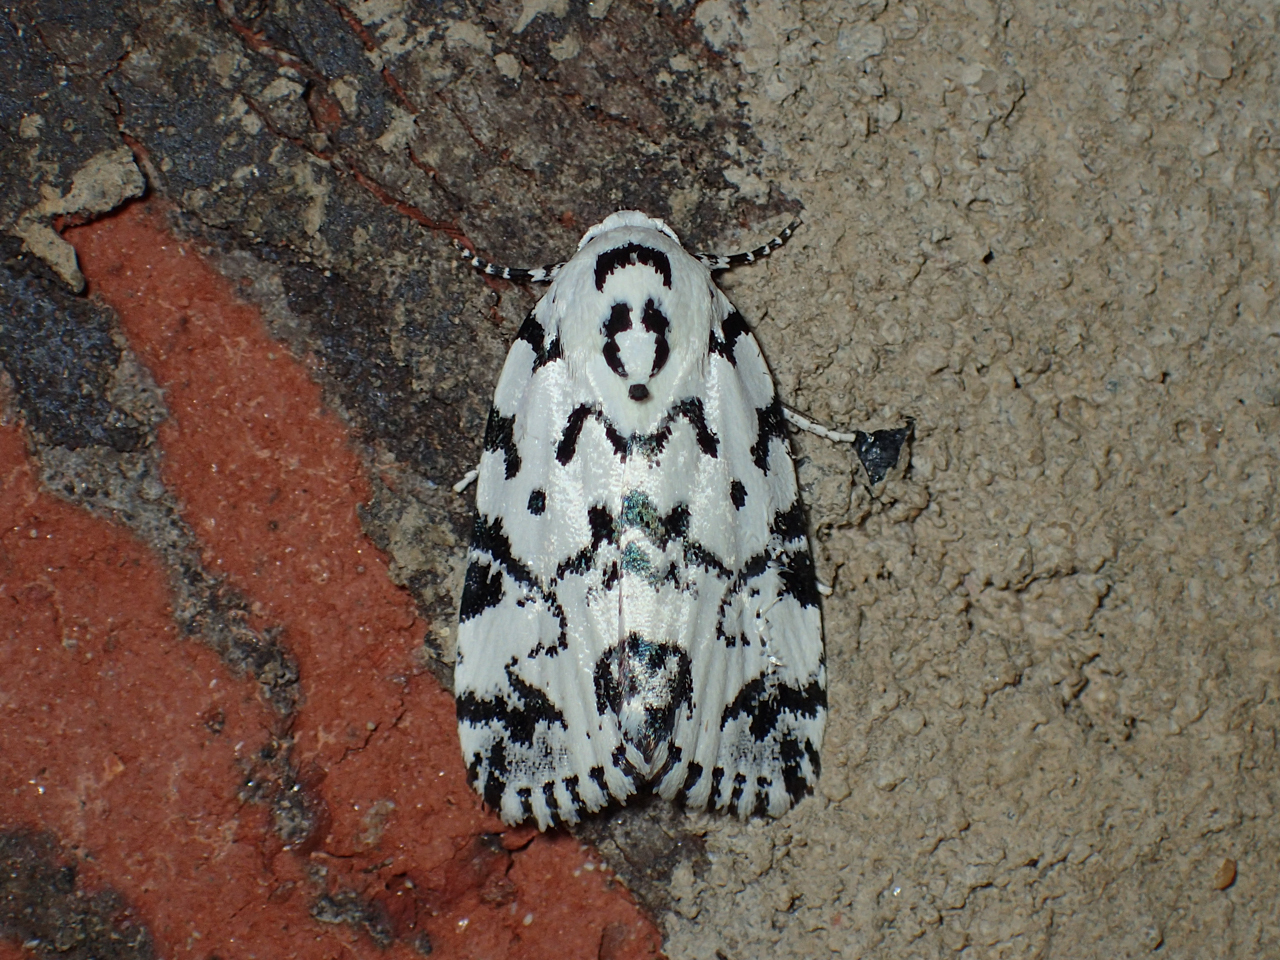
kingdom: Animalia
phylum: Arthropoda
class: Insecta
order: Lepidoptera
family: Noctuidae
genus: Polygrammate
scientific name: Polygrammate hebraeicum
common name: Hebrew moth
